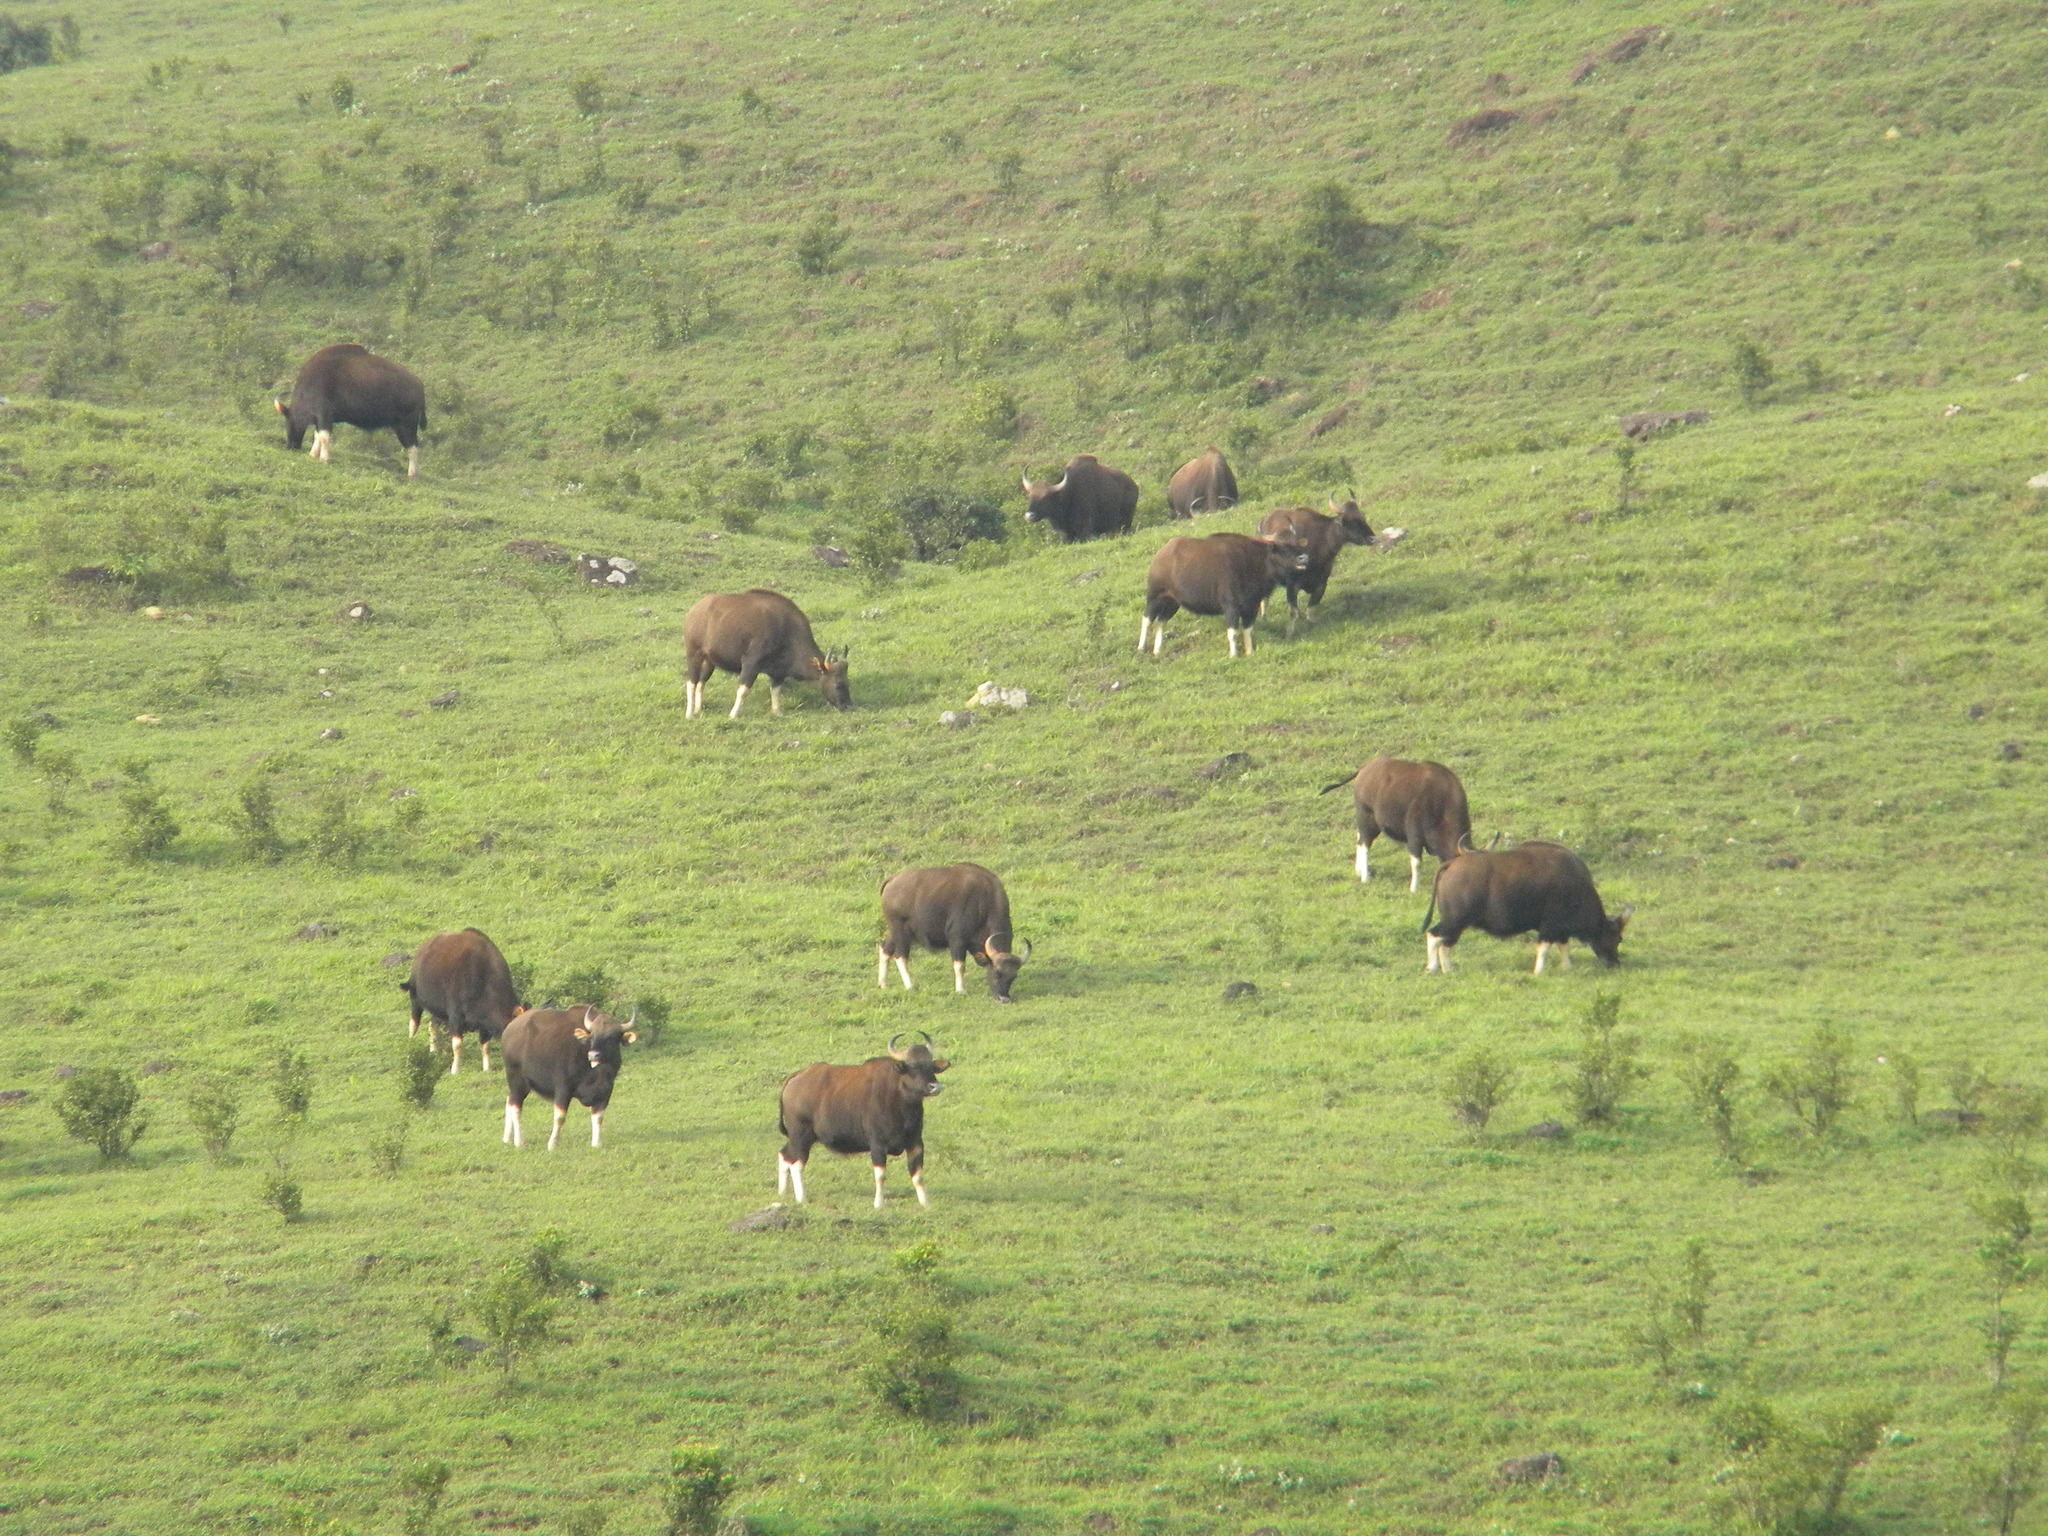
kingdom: Animalia
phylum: Chordata
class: Mammalia
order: Artiodactyla
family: Bovidae
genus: Bos
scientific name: Bos frontalis
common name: Gaur
